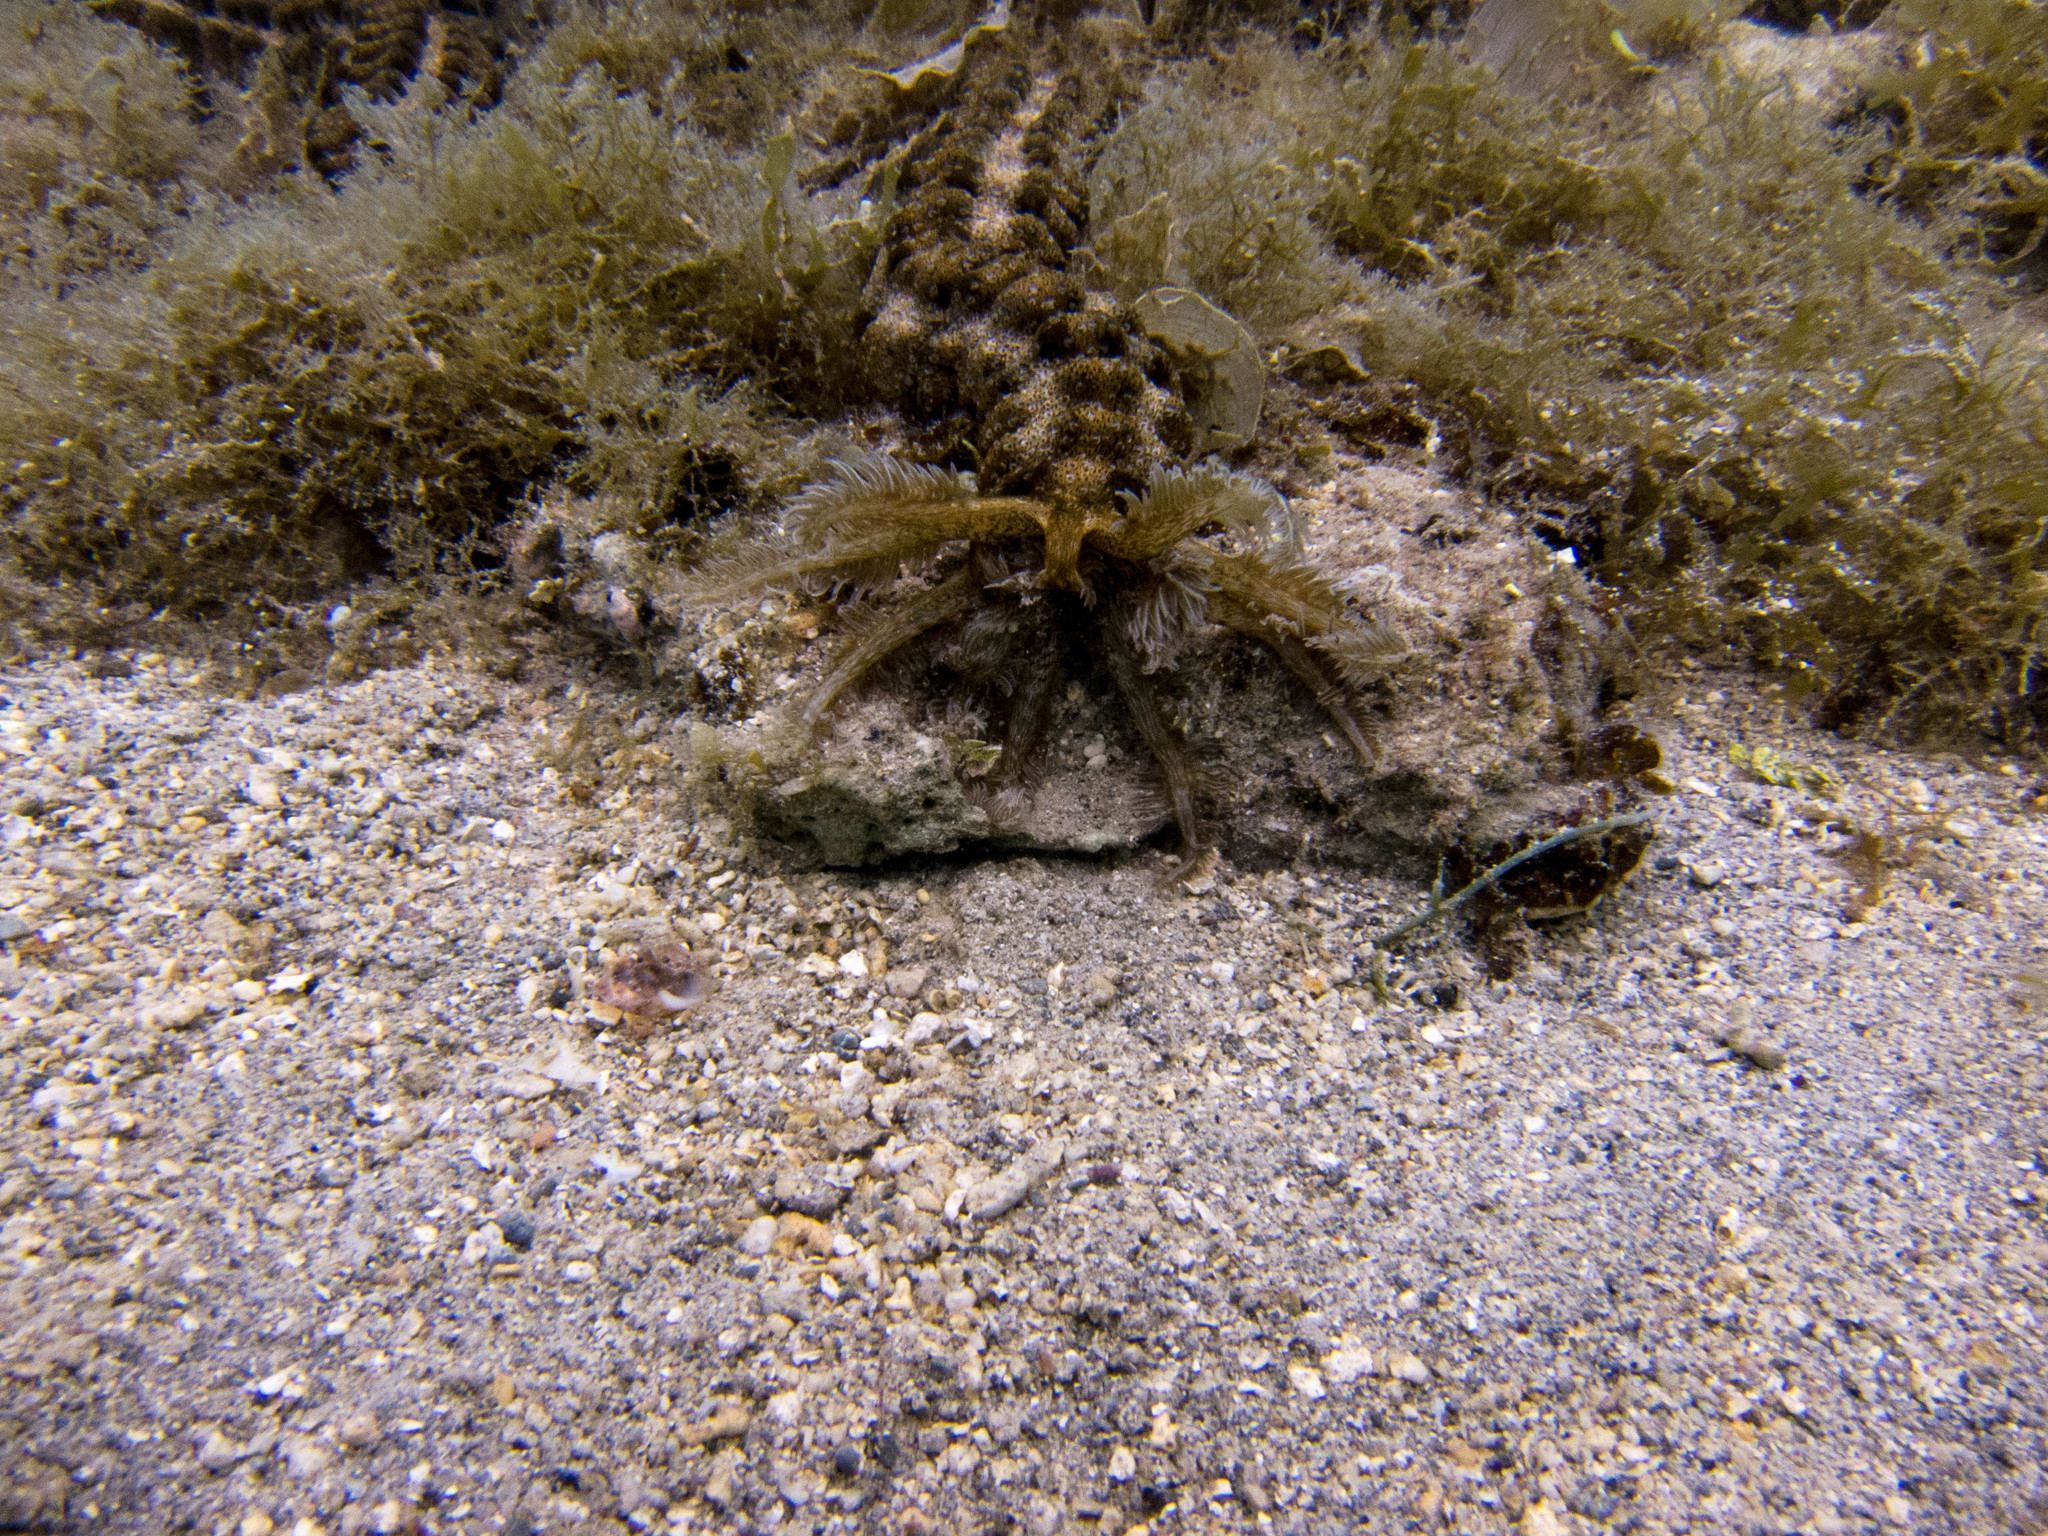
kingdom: Animalia
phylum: Echinodermata
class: Holothuroidea
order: Apodida
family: Synaptidae
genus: Synapta
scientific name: Synapta maculata
